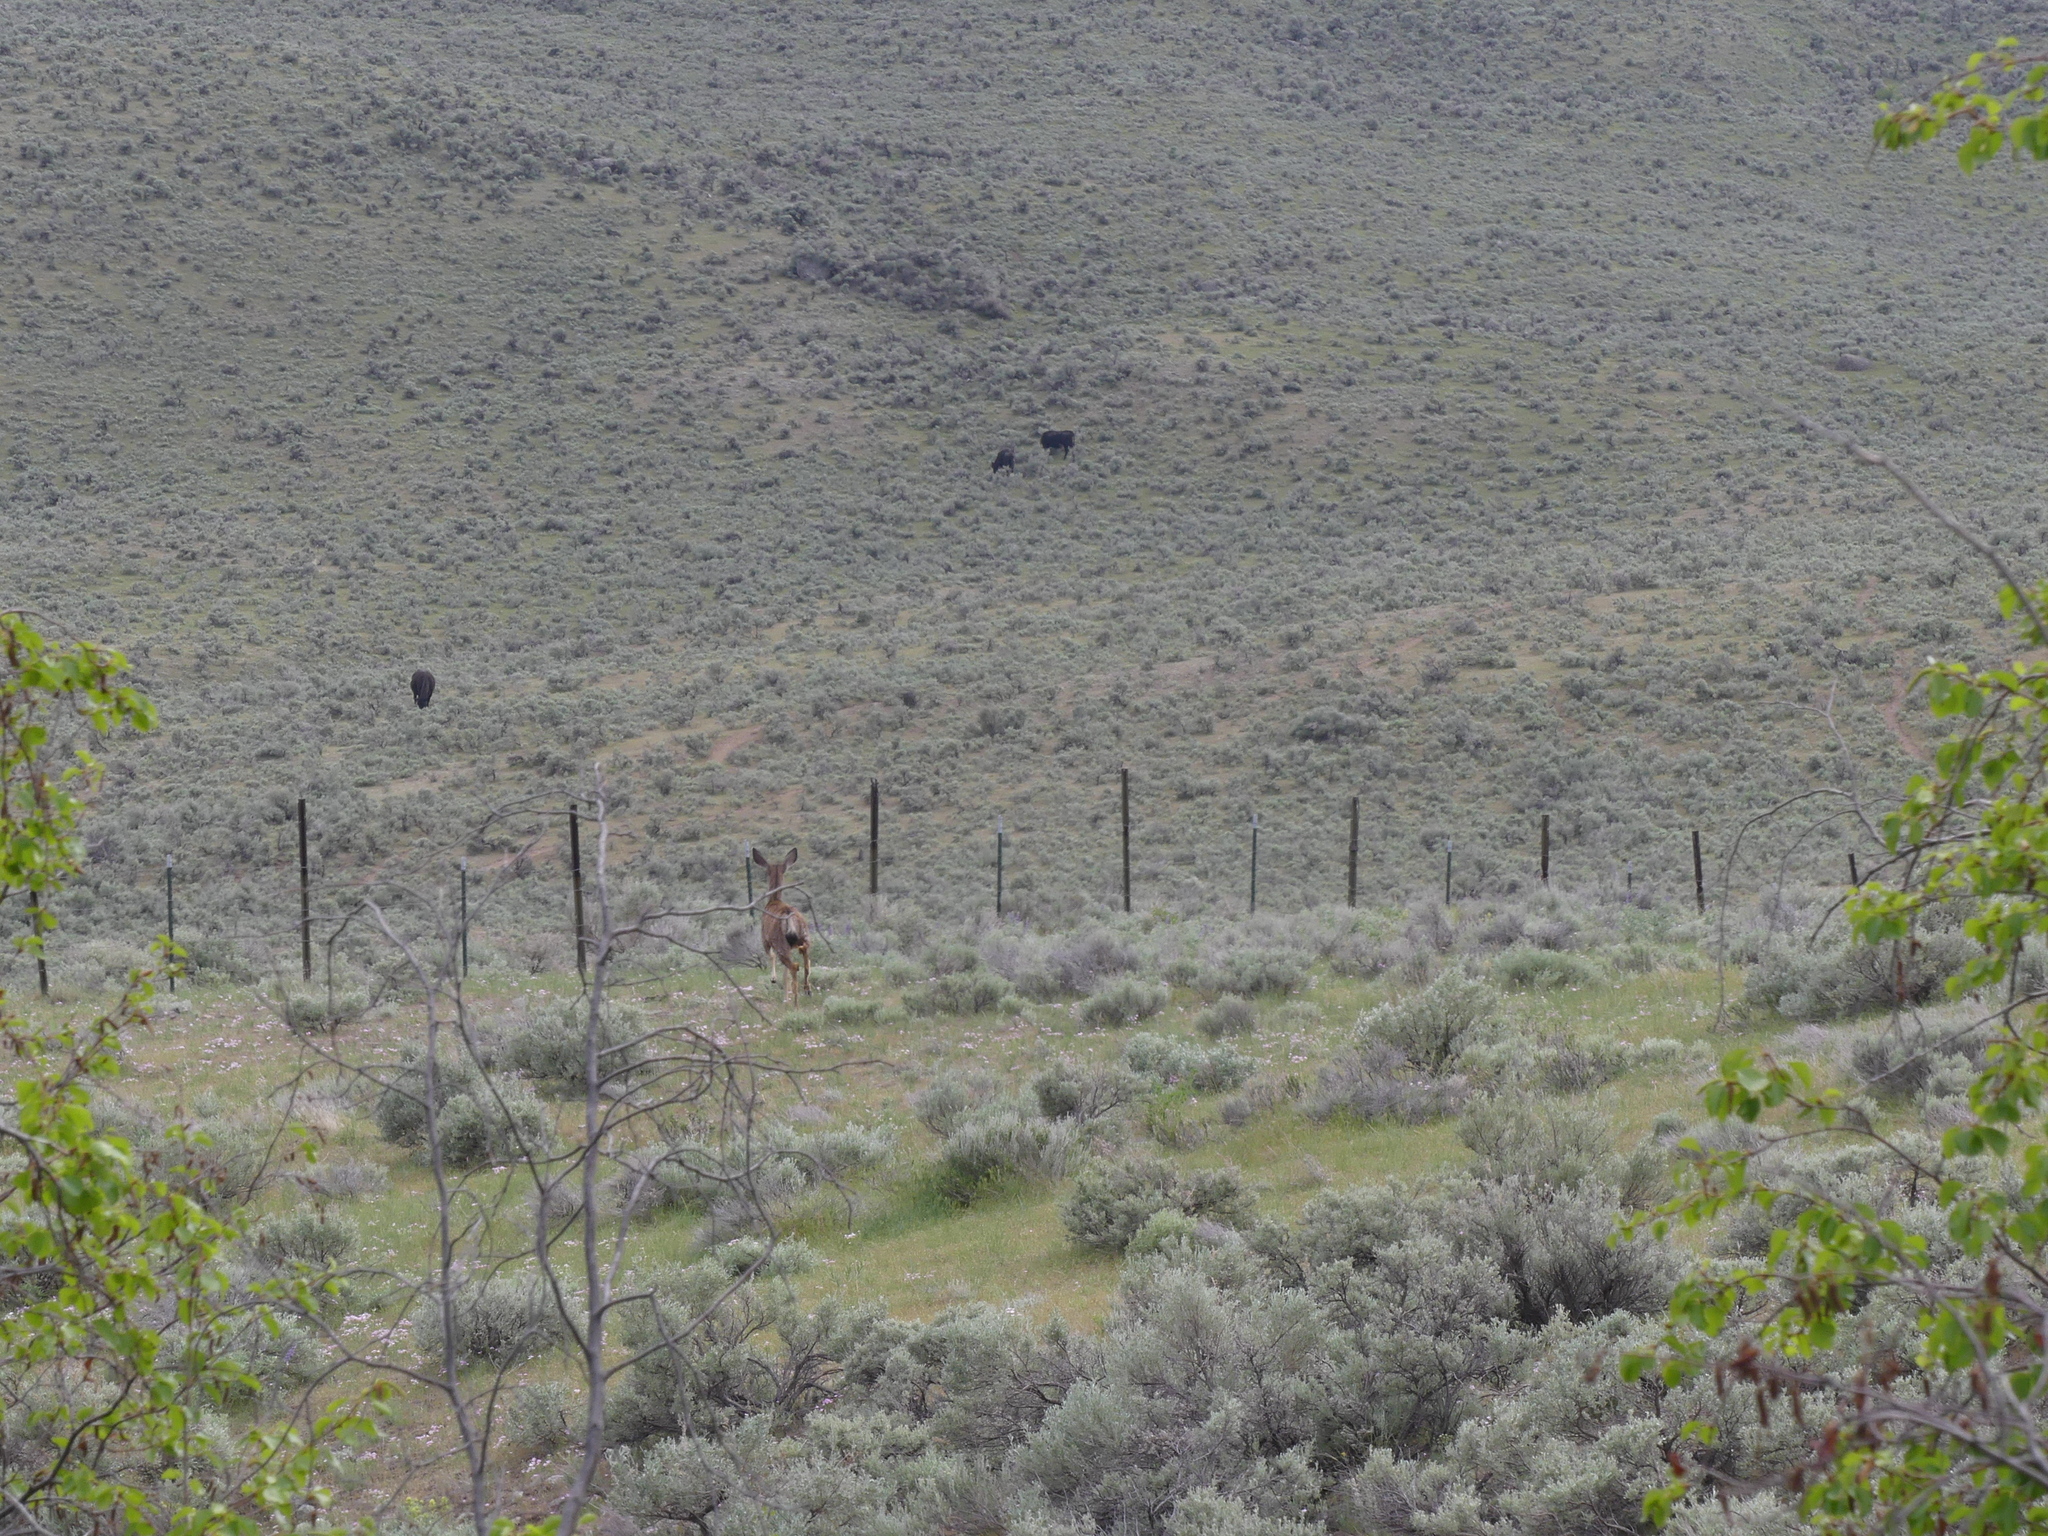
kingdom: Animalia
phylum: Chordata
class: Mammalia
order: Artiodactyla
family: Cervidae
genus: Odocoileus
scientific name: Odocoileus hemionus
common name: Mule deer
